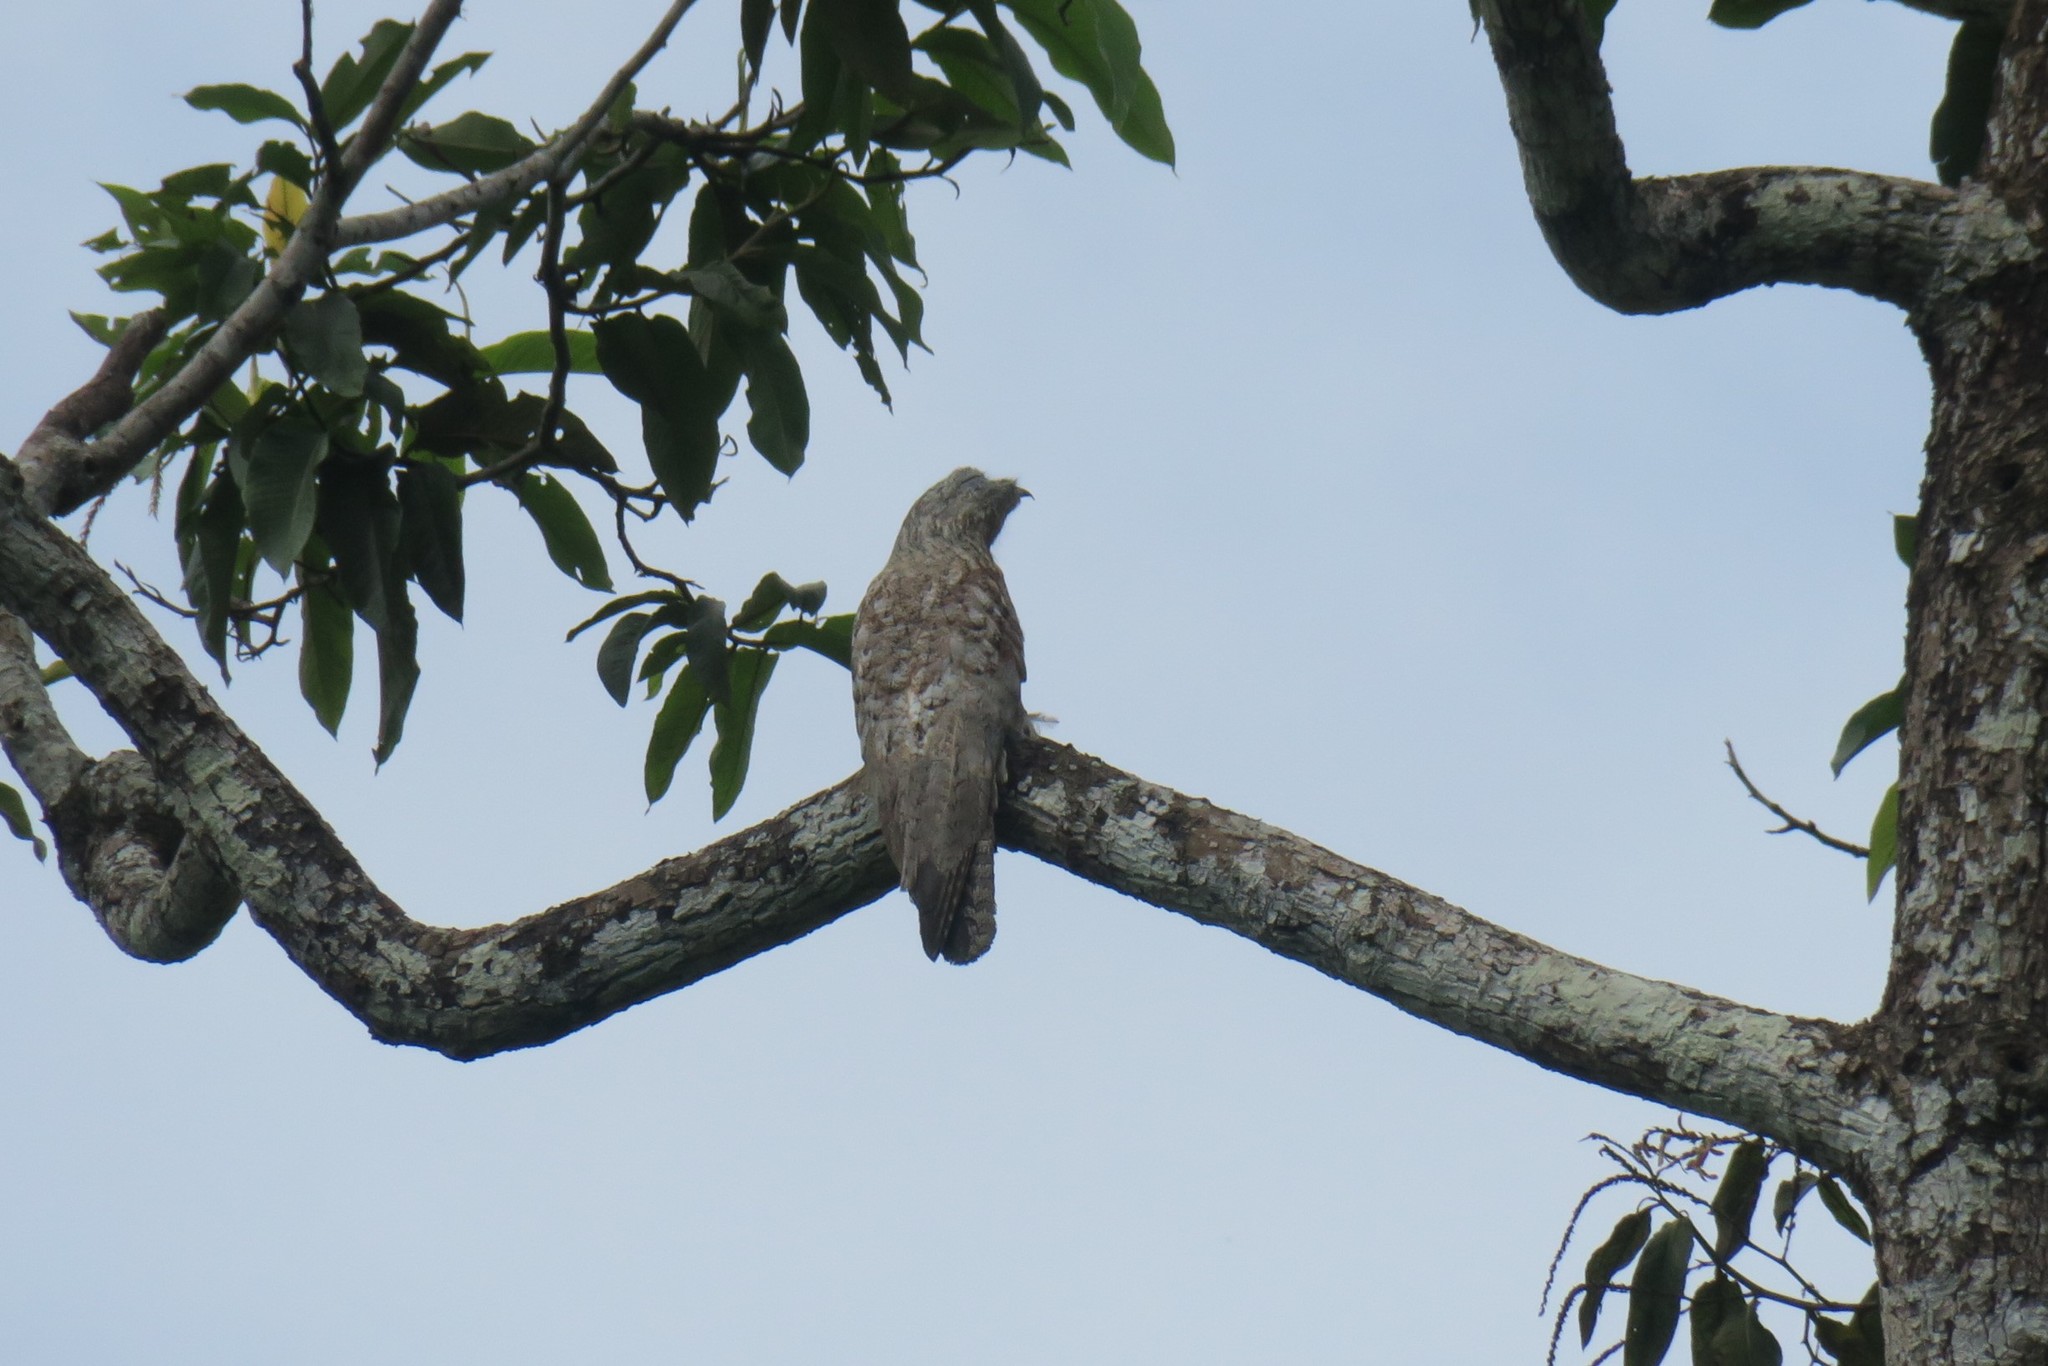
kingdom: Animalia
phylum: Chordata
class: Aves
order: Nyctibiiformes
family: Nyctibiidae
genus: Nyctibius
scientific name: Nyctibius grandis
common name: Great potoo
